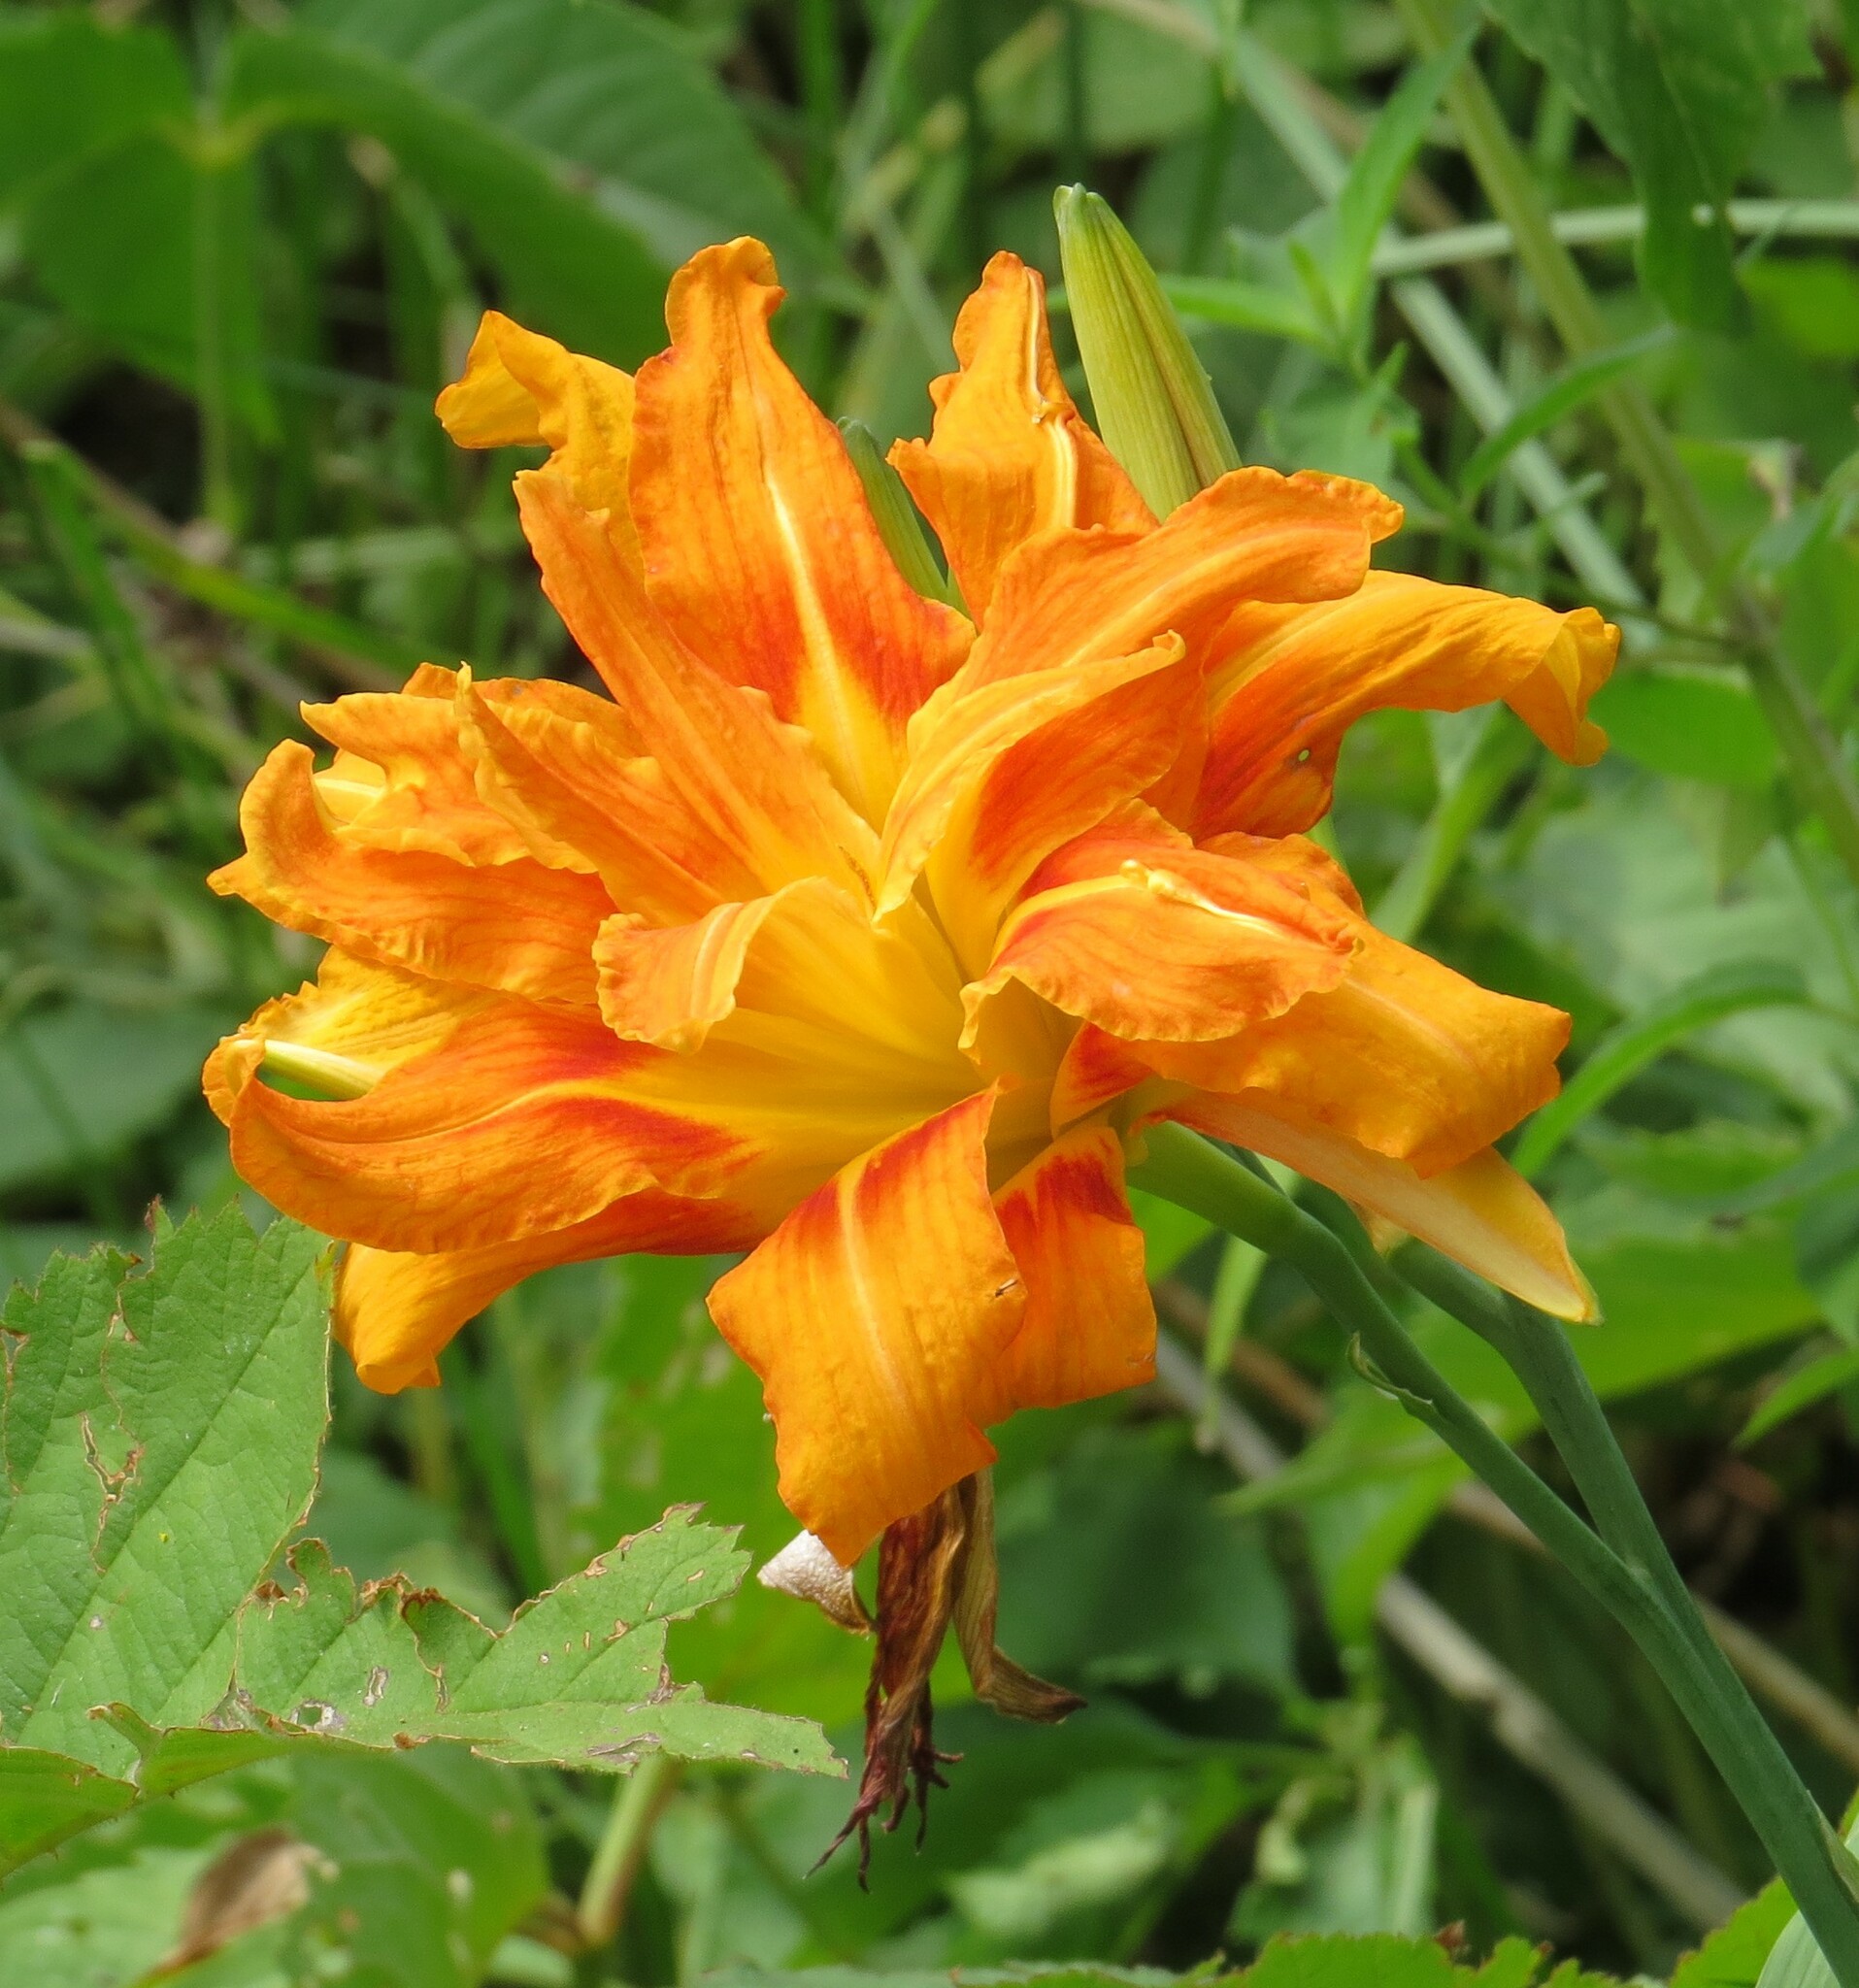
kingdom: Plantae
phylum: Tracheophyta
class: Liliopsida
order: Asparagales
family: Asphodelaceae
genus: Hemerocallis
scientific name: Hemerocallis fulva
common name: Orange day-lily
